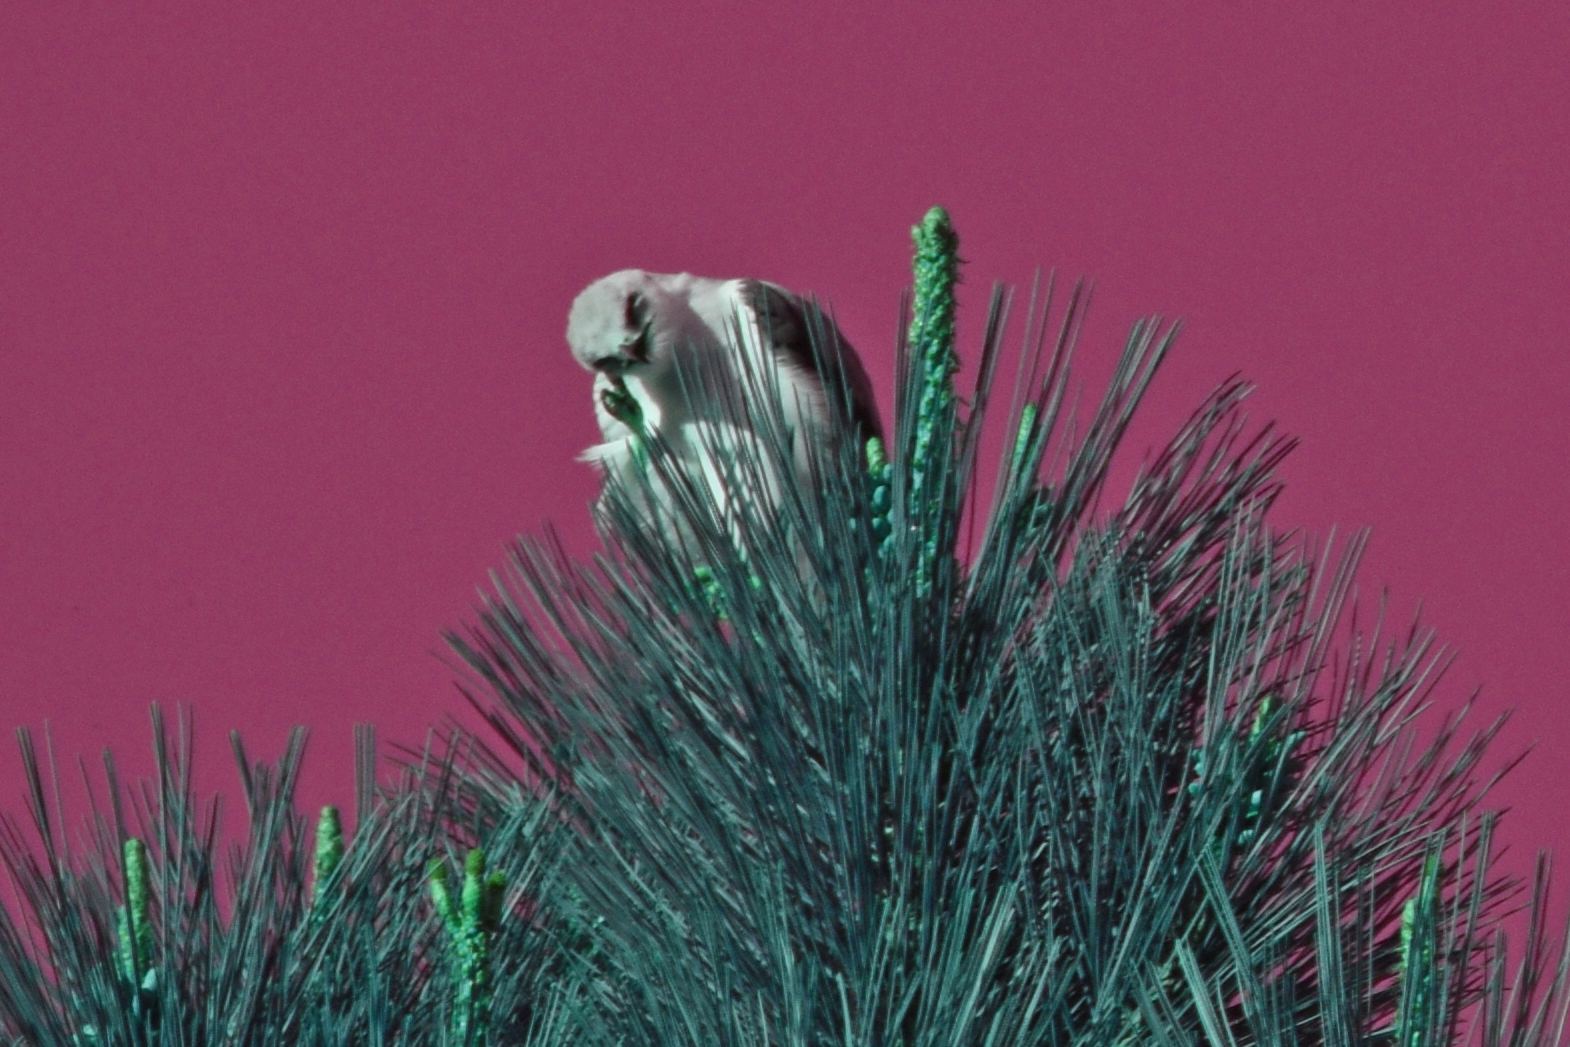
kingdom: Animalia
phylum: Chordata
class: Aves
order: Accipitriformes
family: Accipitridae
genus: Elanus
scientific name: Elanus leucurus
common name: White-tailed kite
